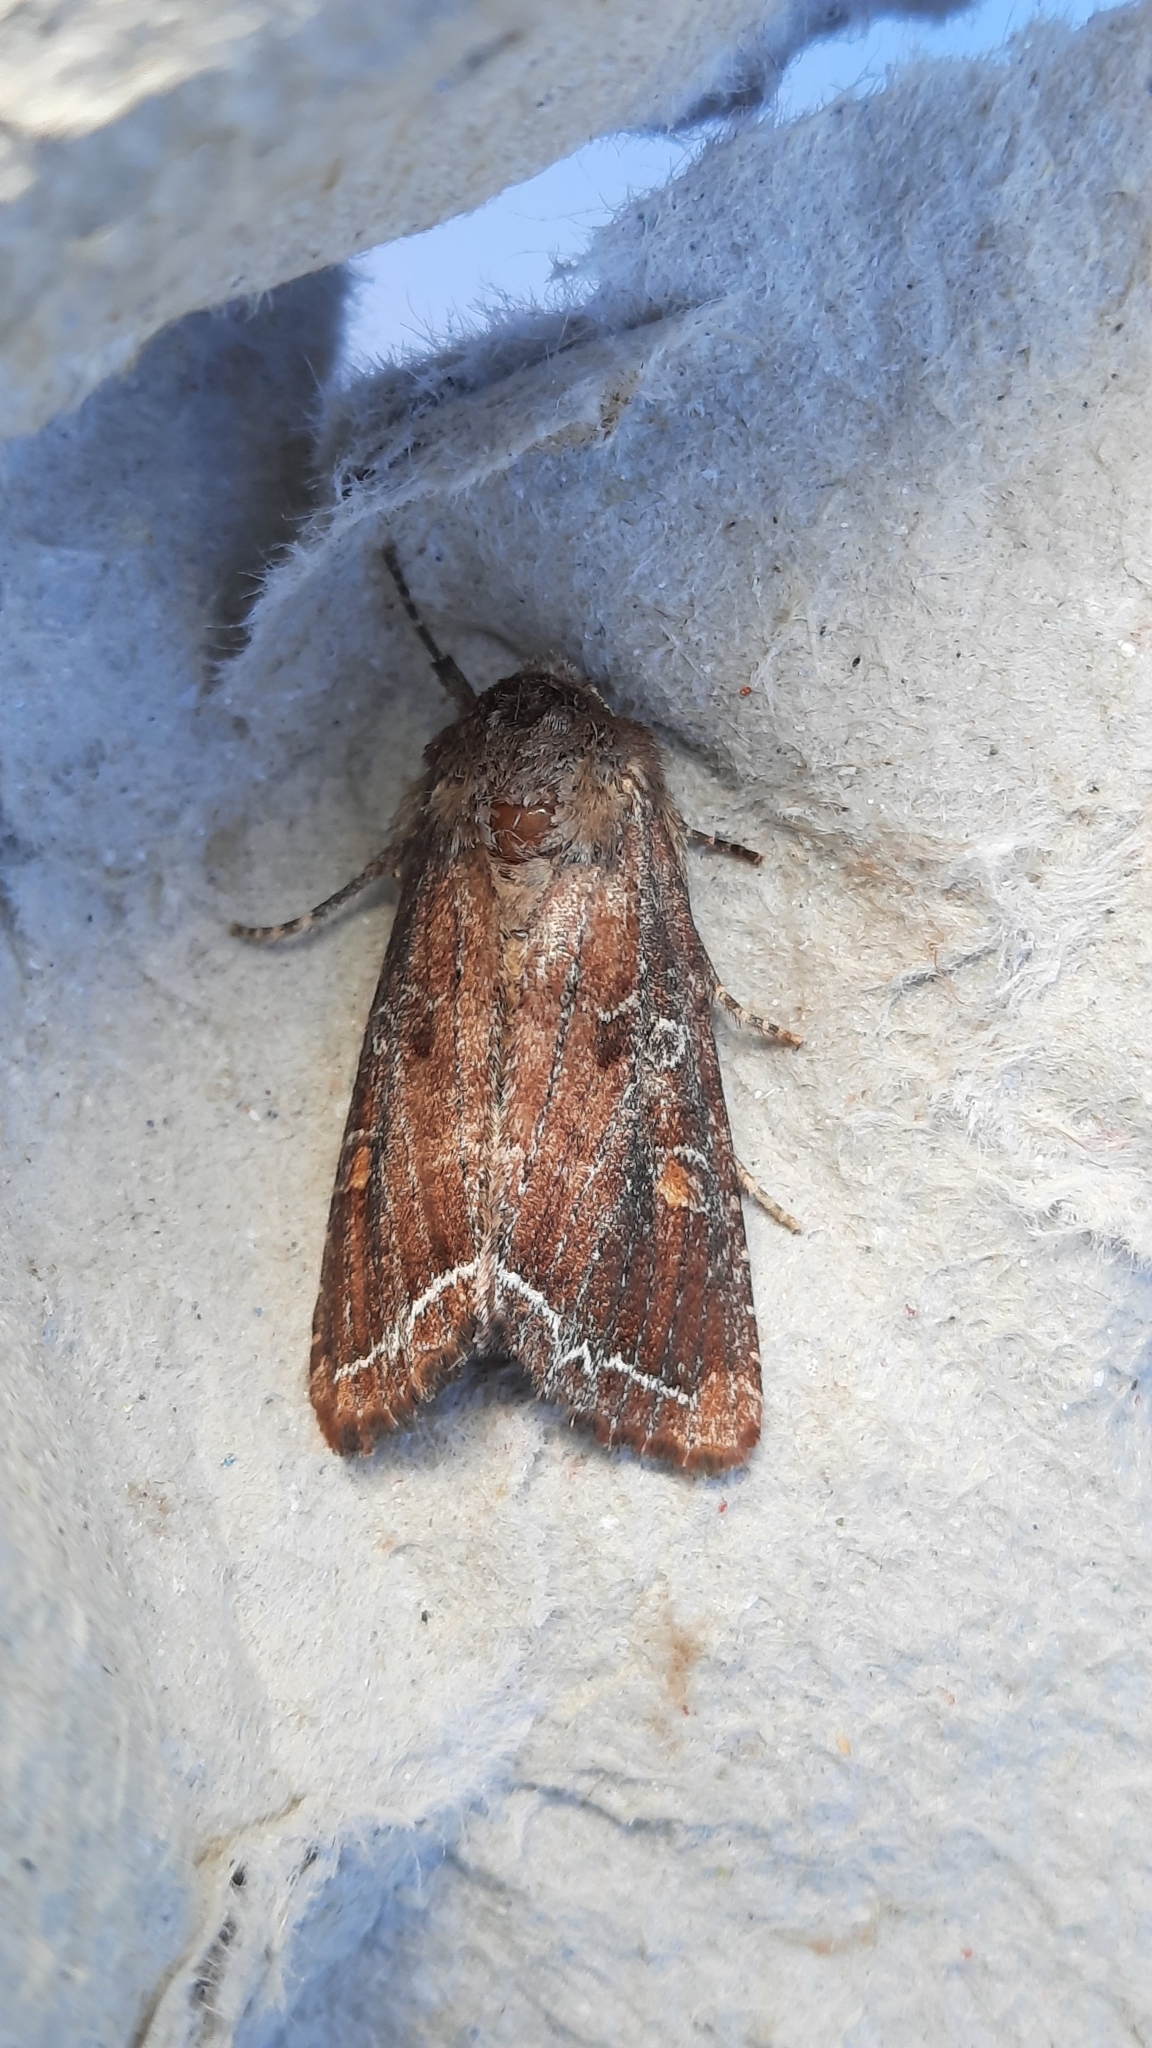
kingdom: Animalia
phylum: Arthropoda
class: Insecta
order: Lepidoptera
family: Noctuidae
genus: Lacanobia
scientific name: Lacanobia oleracea
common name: Bright-line brown-eye
